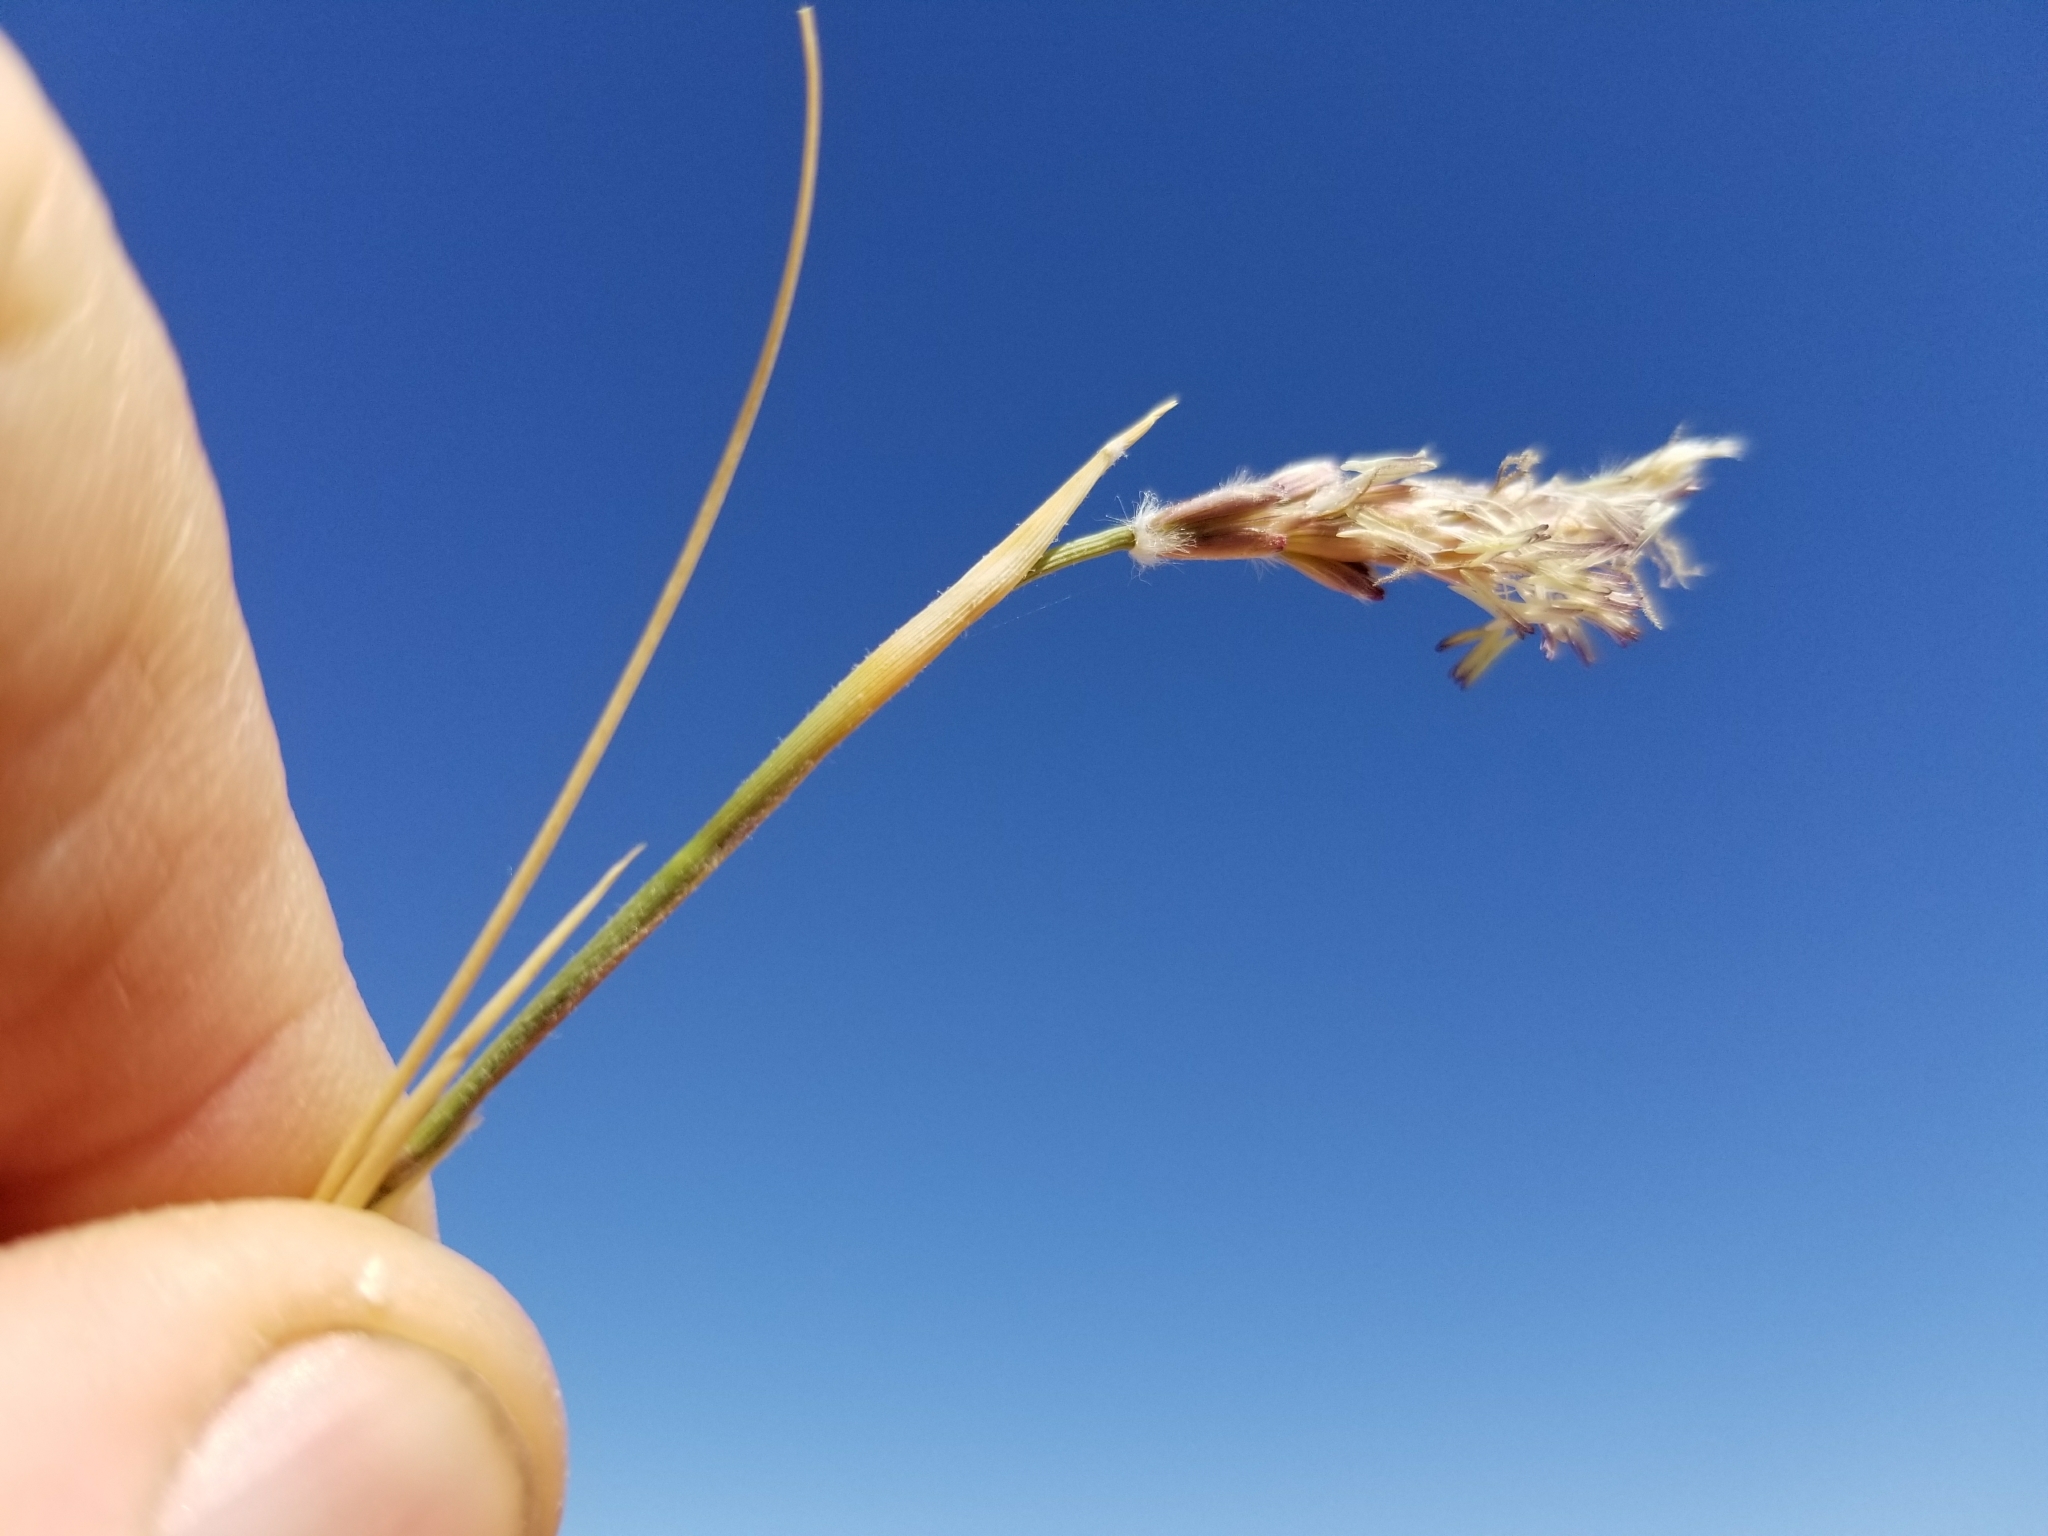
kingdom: Plantae
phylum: Tracheophyta
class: Liliopsida
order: Poales
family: Poaceae
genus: Hilaria
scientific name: Hilaria rigida
